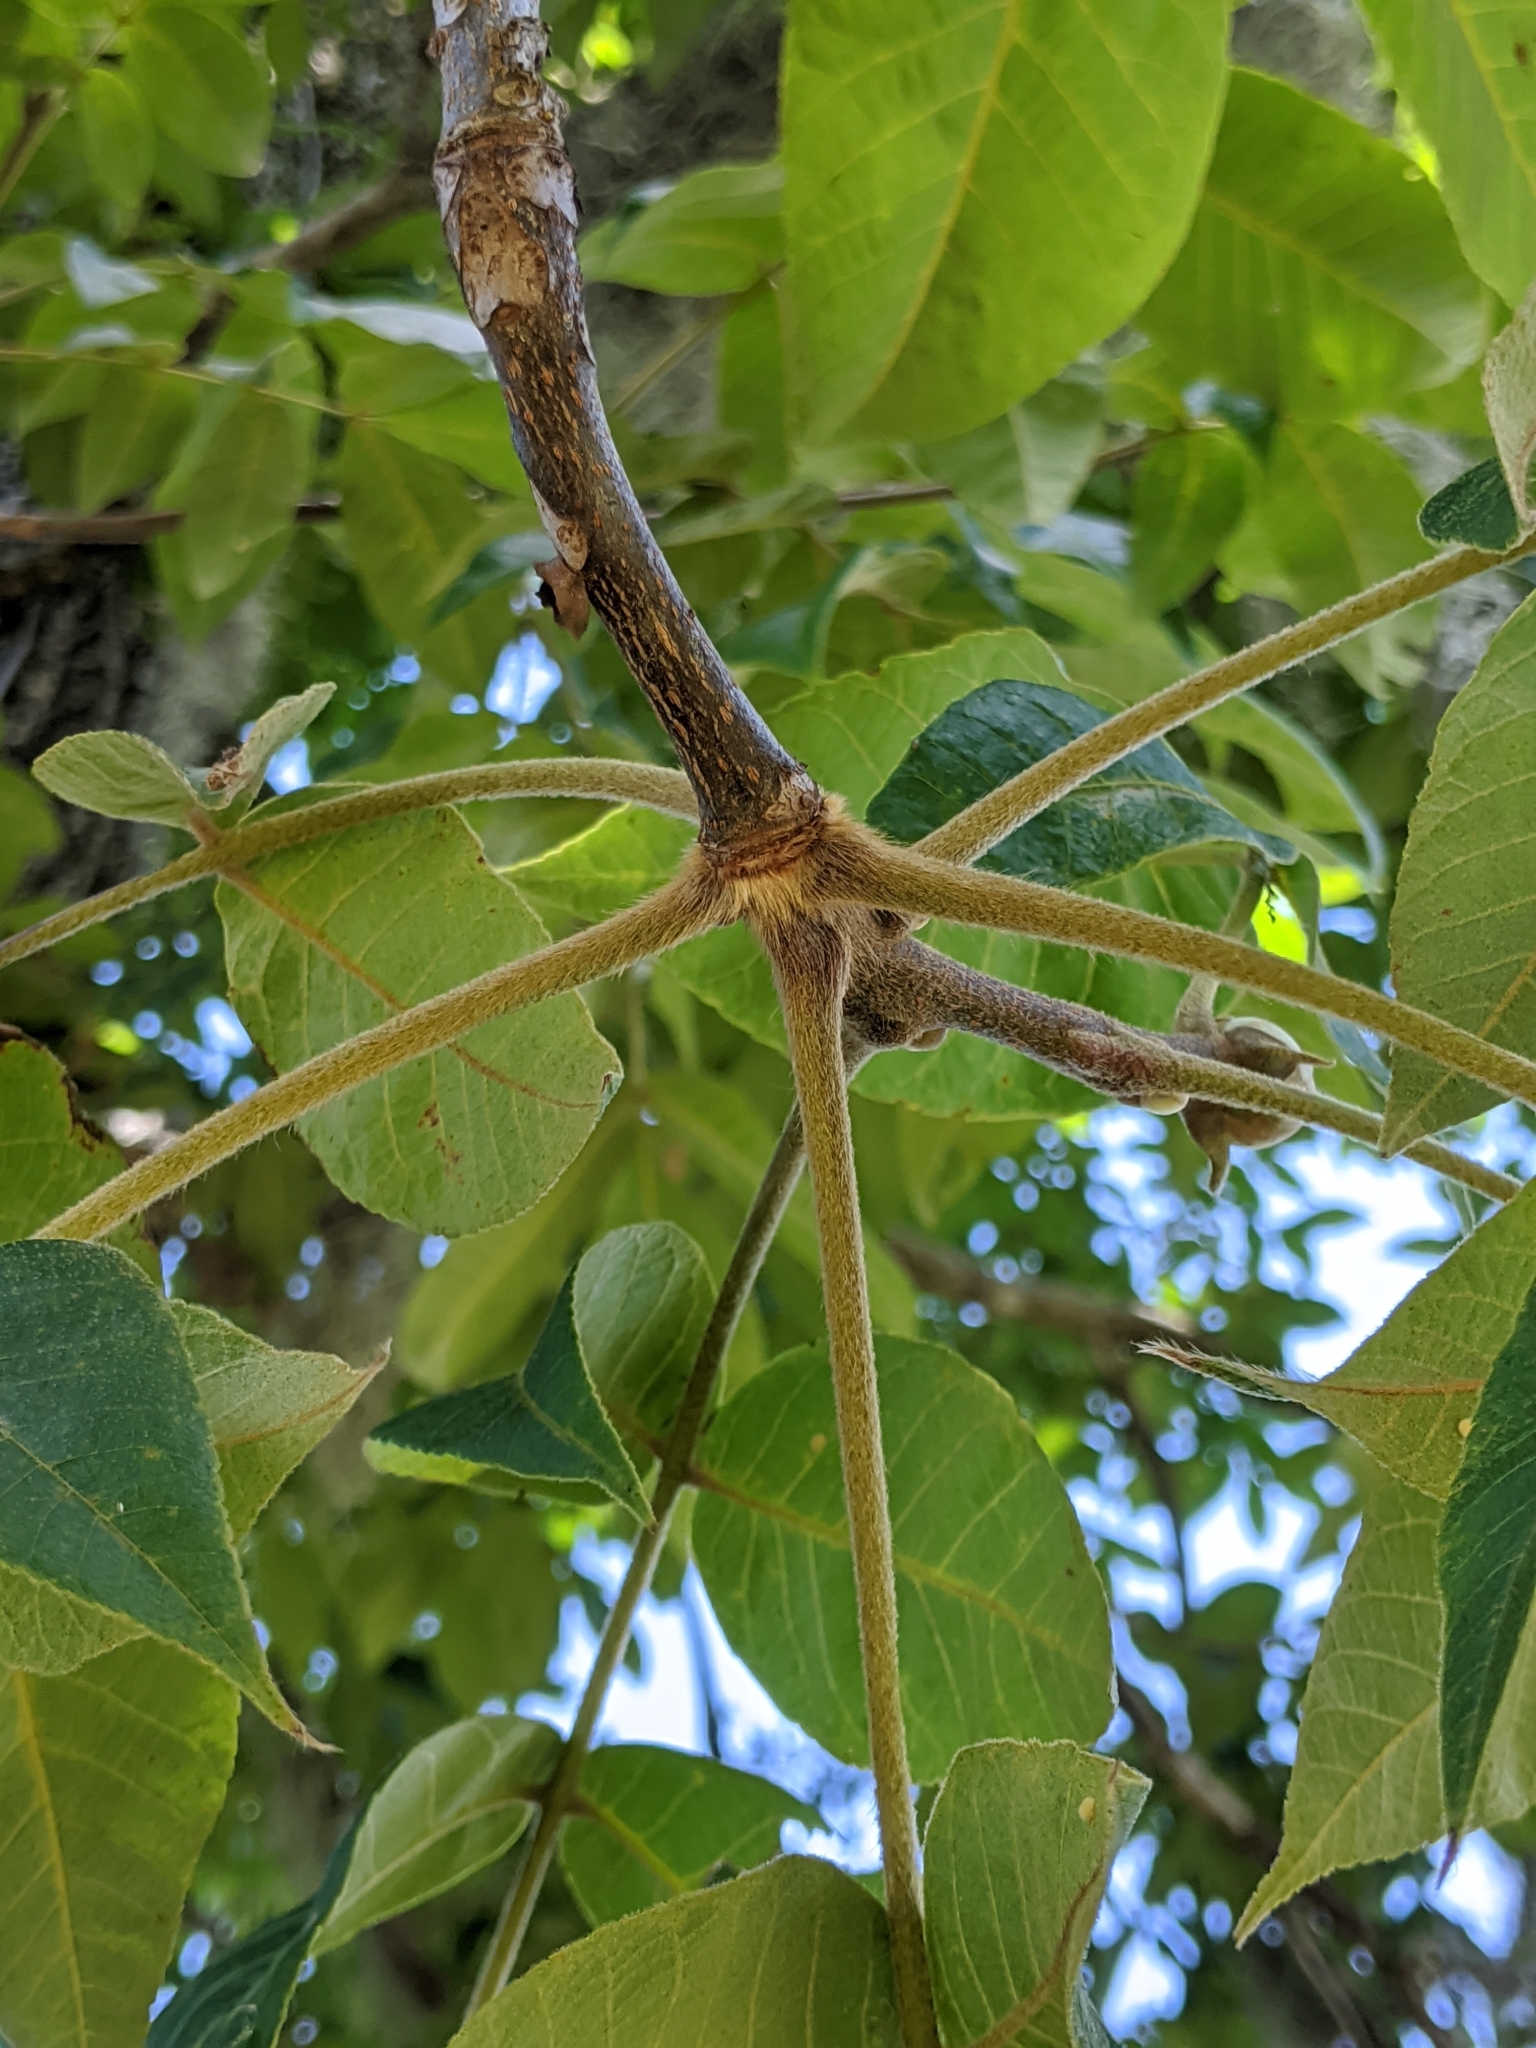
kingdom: Plantae
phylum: Tracheophyta
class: Magnoliopsida
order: Fagales
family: Juglandaceae
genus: Carya
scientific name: Carya alba
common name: Mockernut hickory
